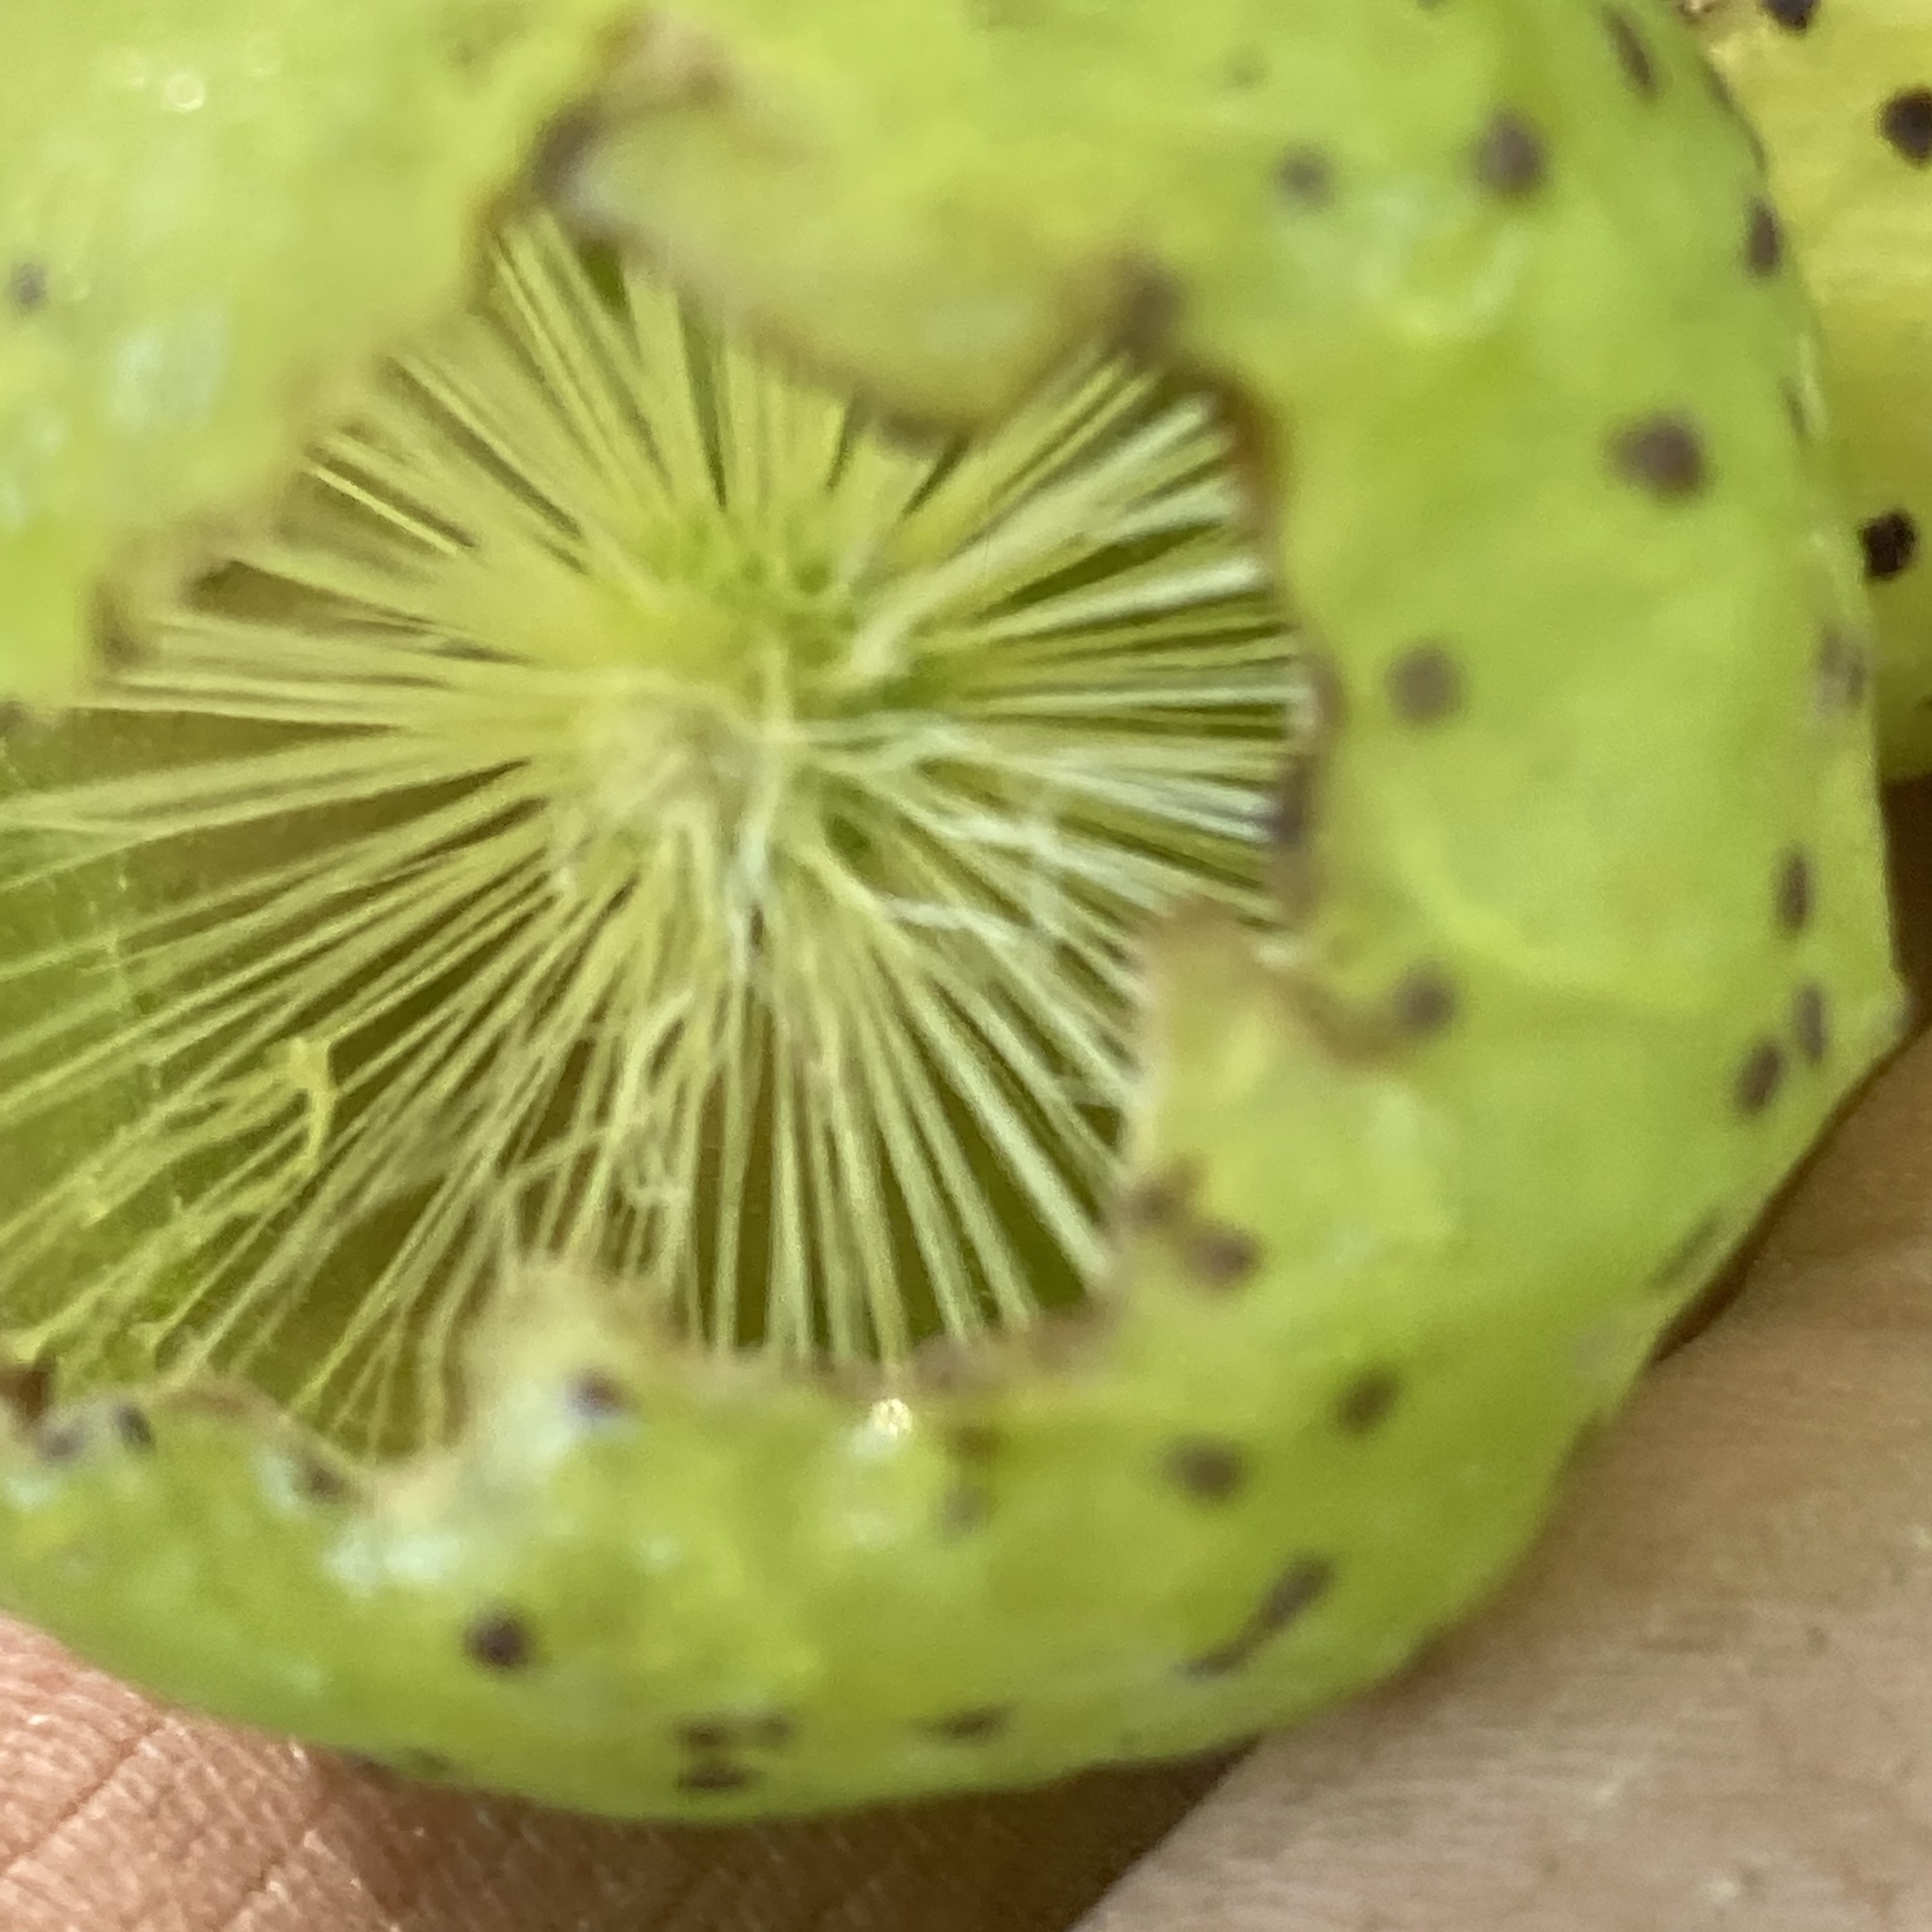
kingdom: Animalia
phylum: Arthropoda
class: Insecta
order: Hymenoptera
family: Cynipidae
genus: Amphibolips
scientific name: Amphibolips
